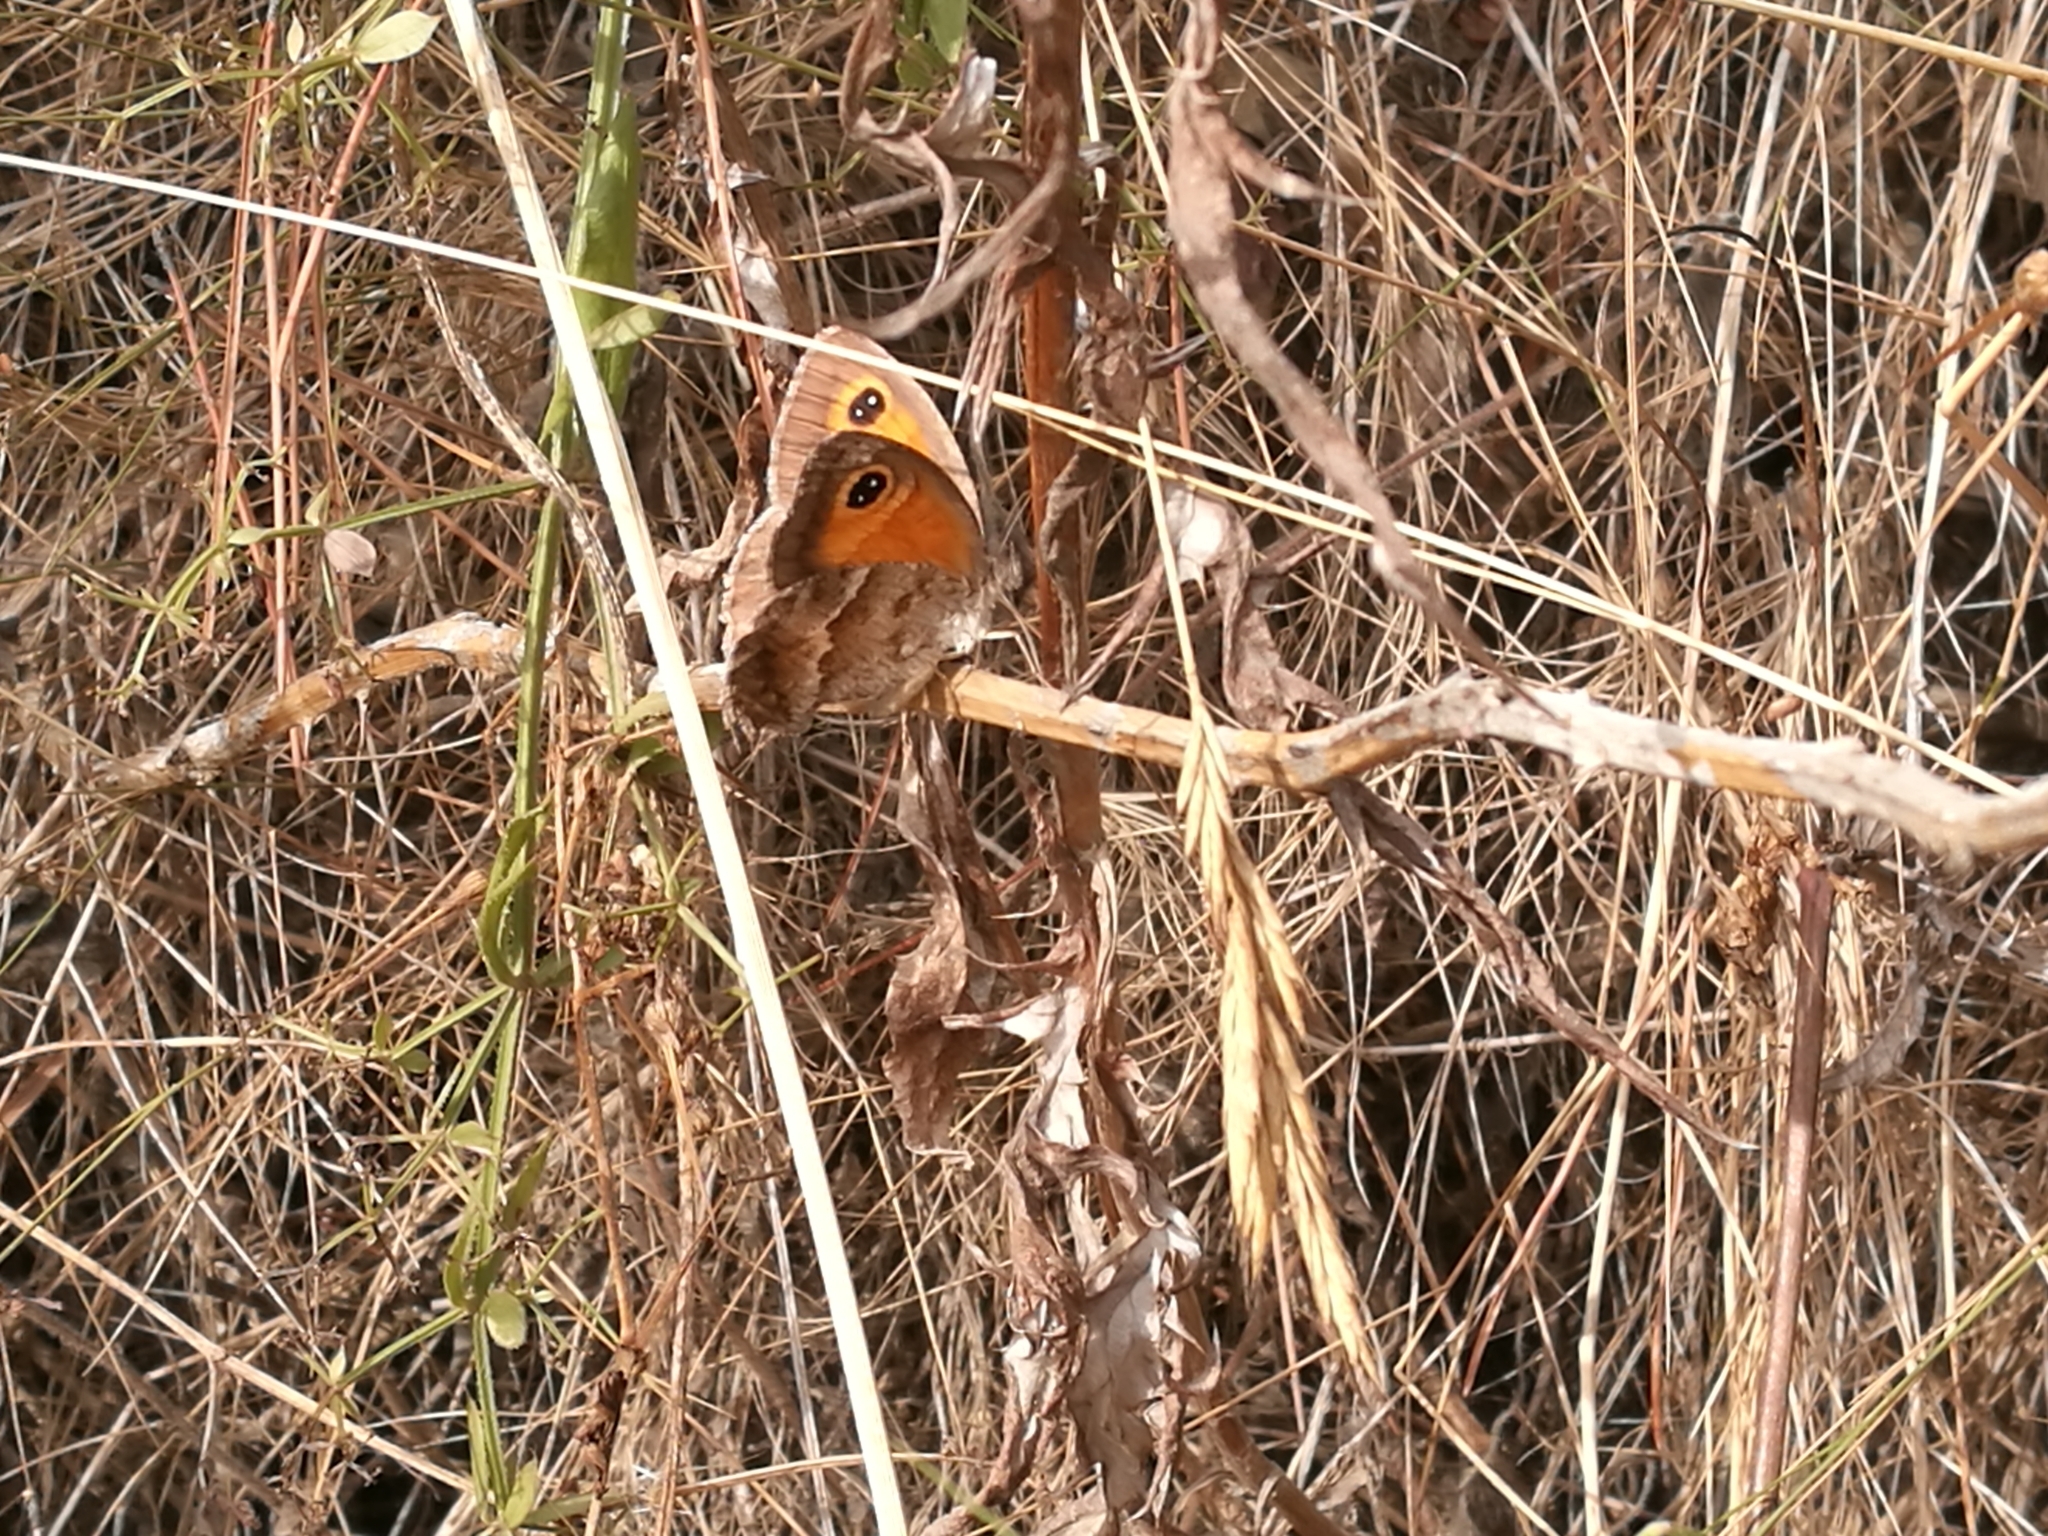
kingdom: Animalia
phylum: Arthropoda
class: Insecta
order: Lepidoptera
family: Nymphalidae
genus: Pyronia
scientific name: Pyronia cecilia
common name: Southern gatekeeper
